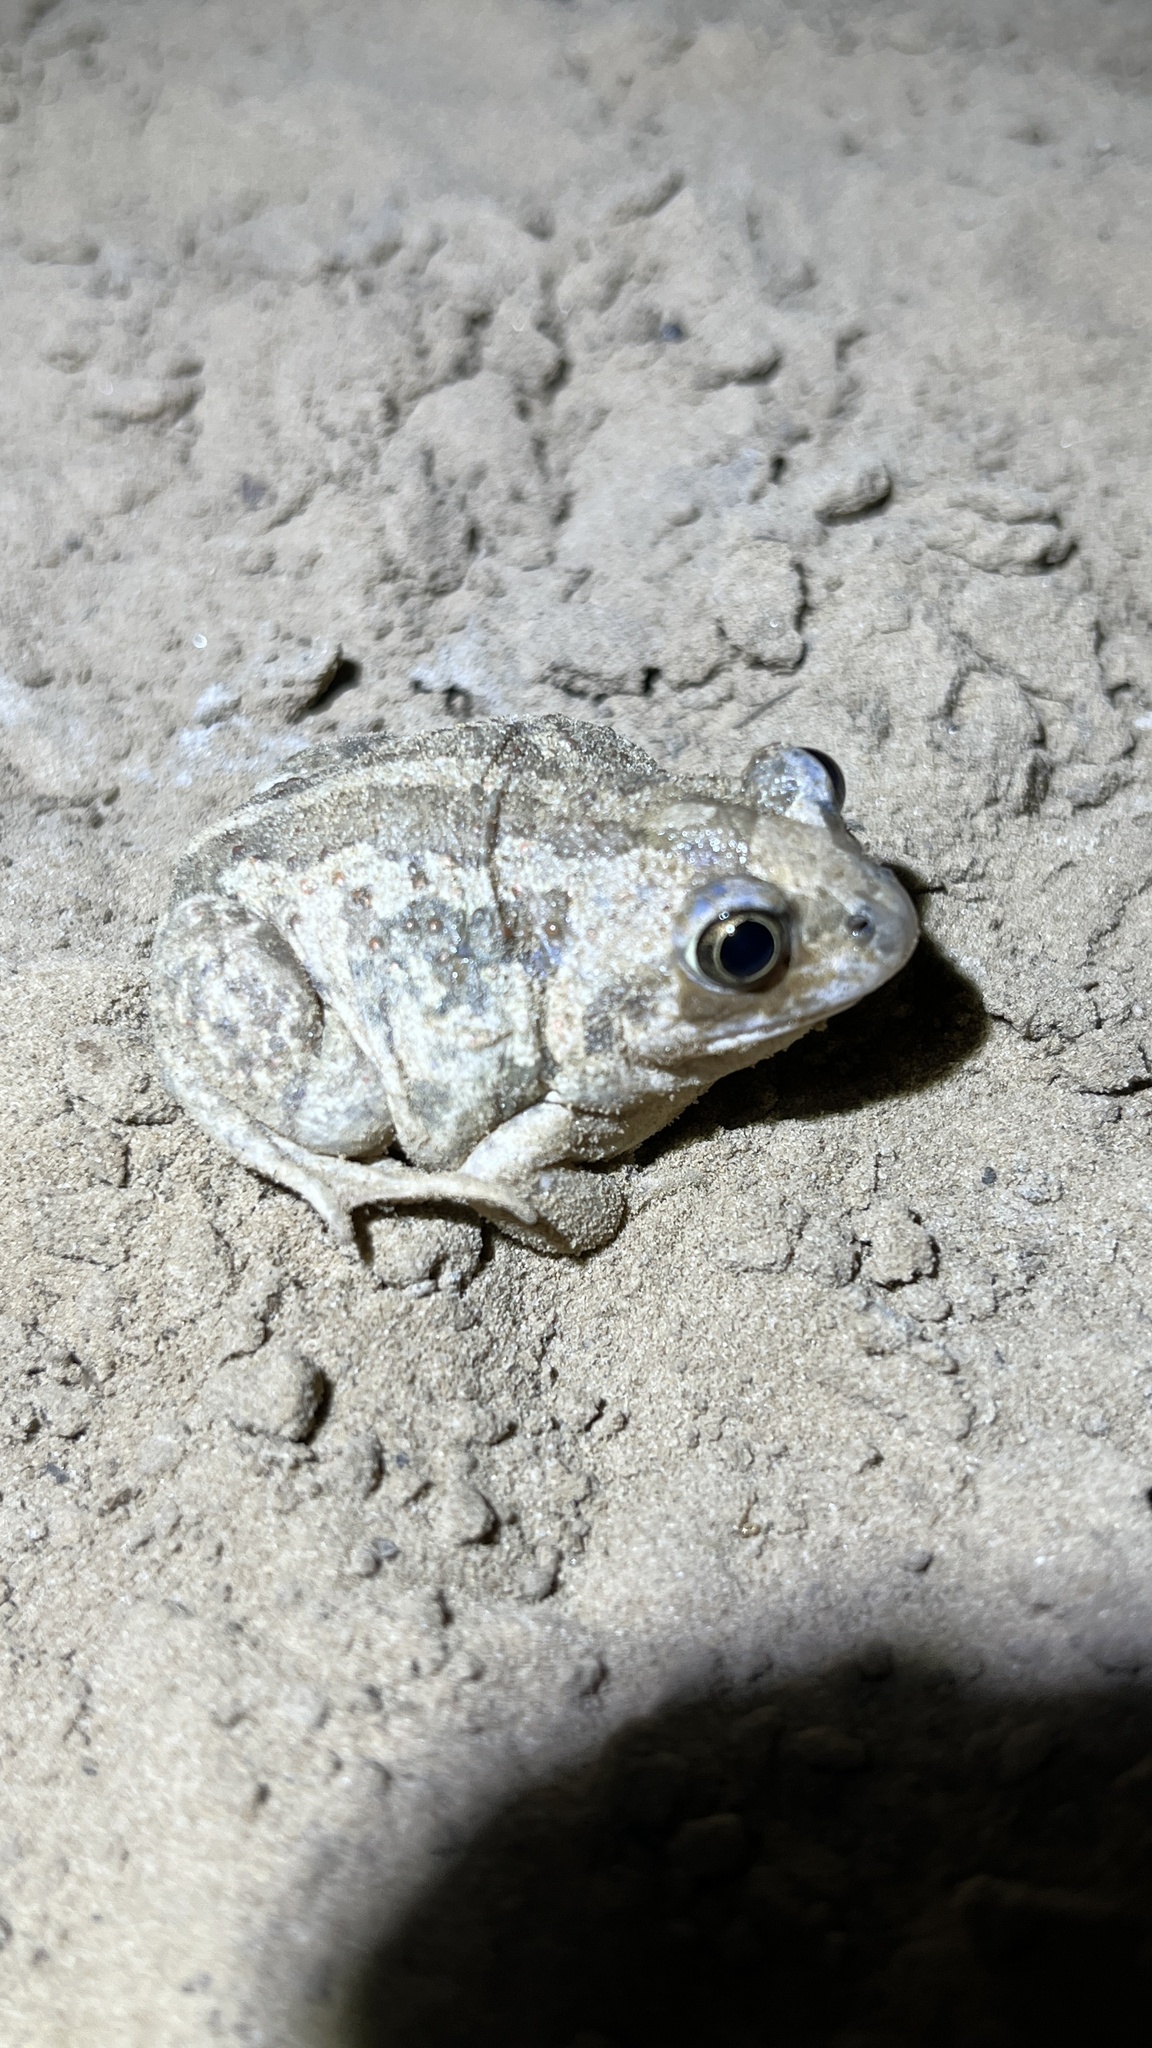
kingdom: Animalia
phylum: Chordata
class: Amphibia
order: Anura
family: Pelobatidae
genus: Pelobates
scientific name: Pelobates vespertinus
